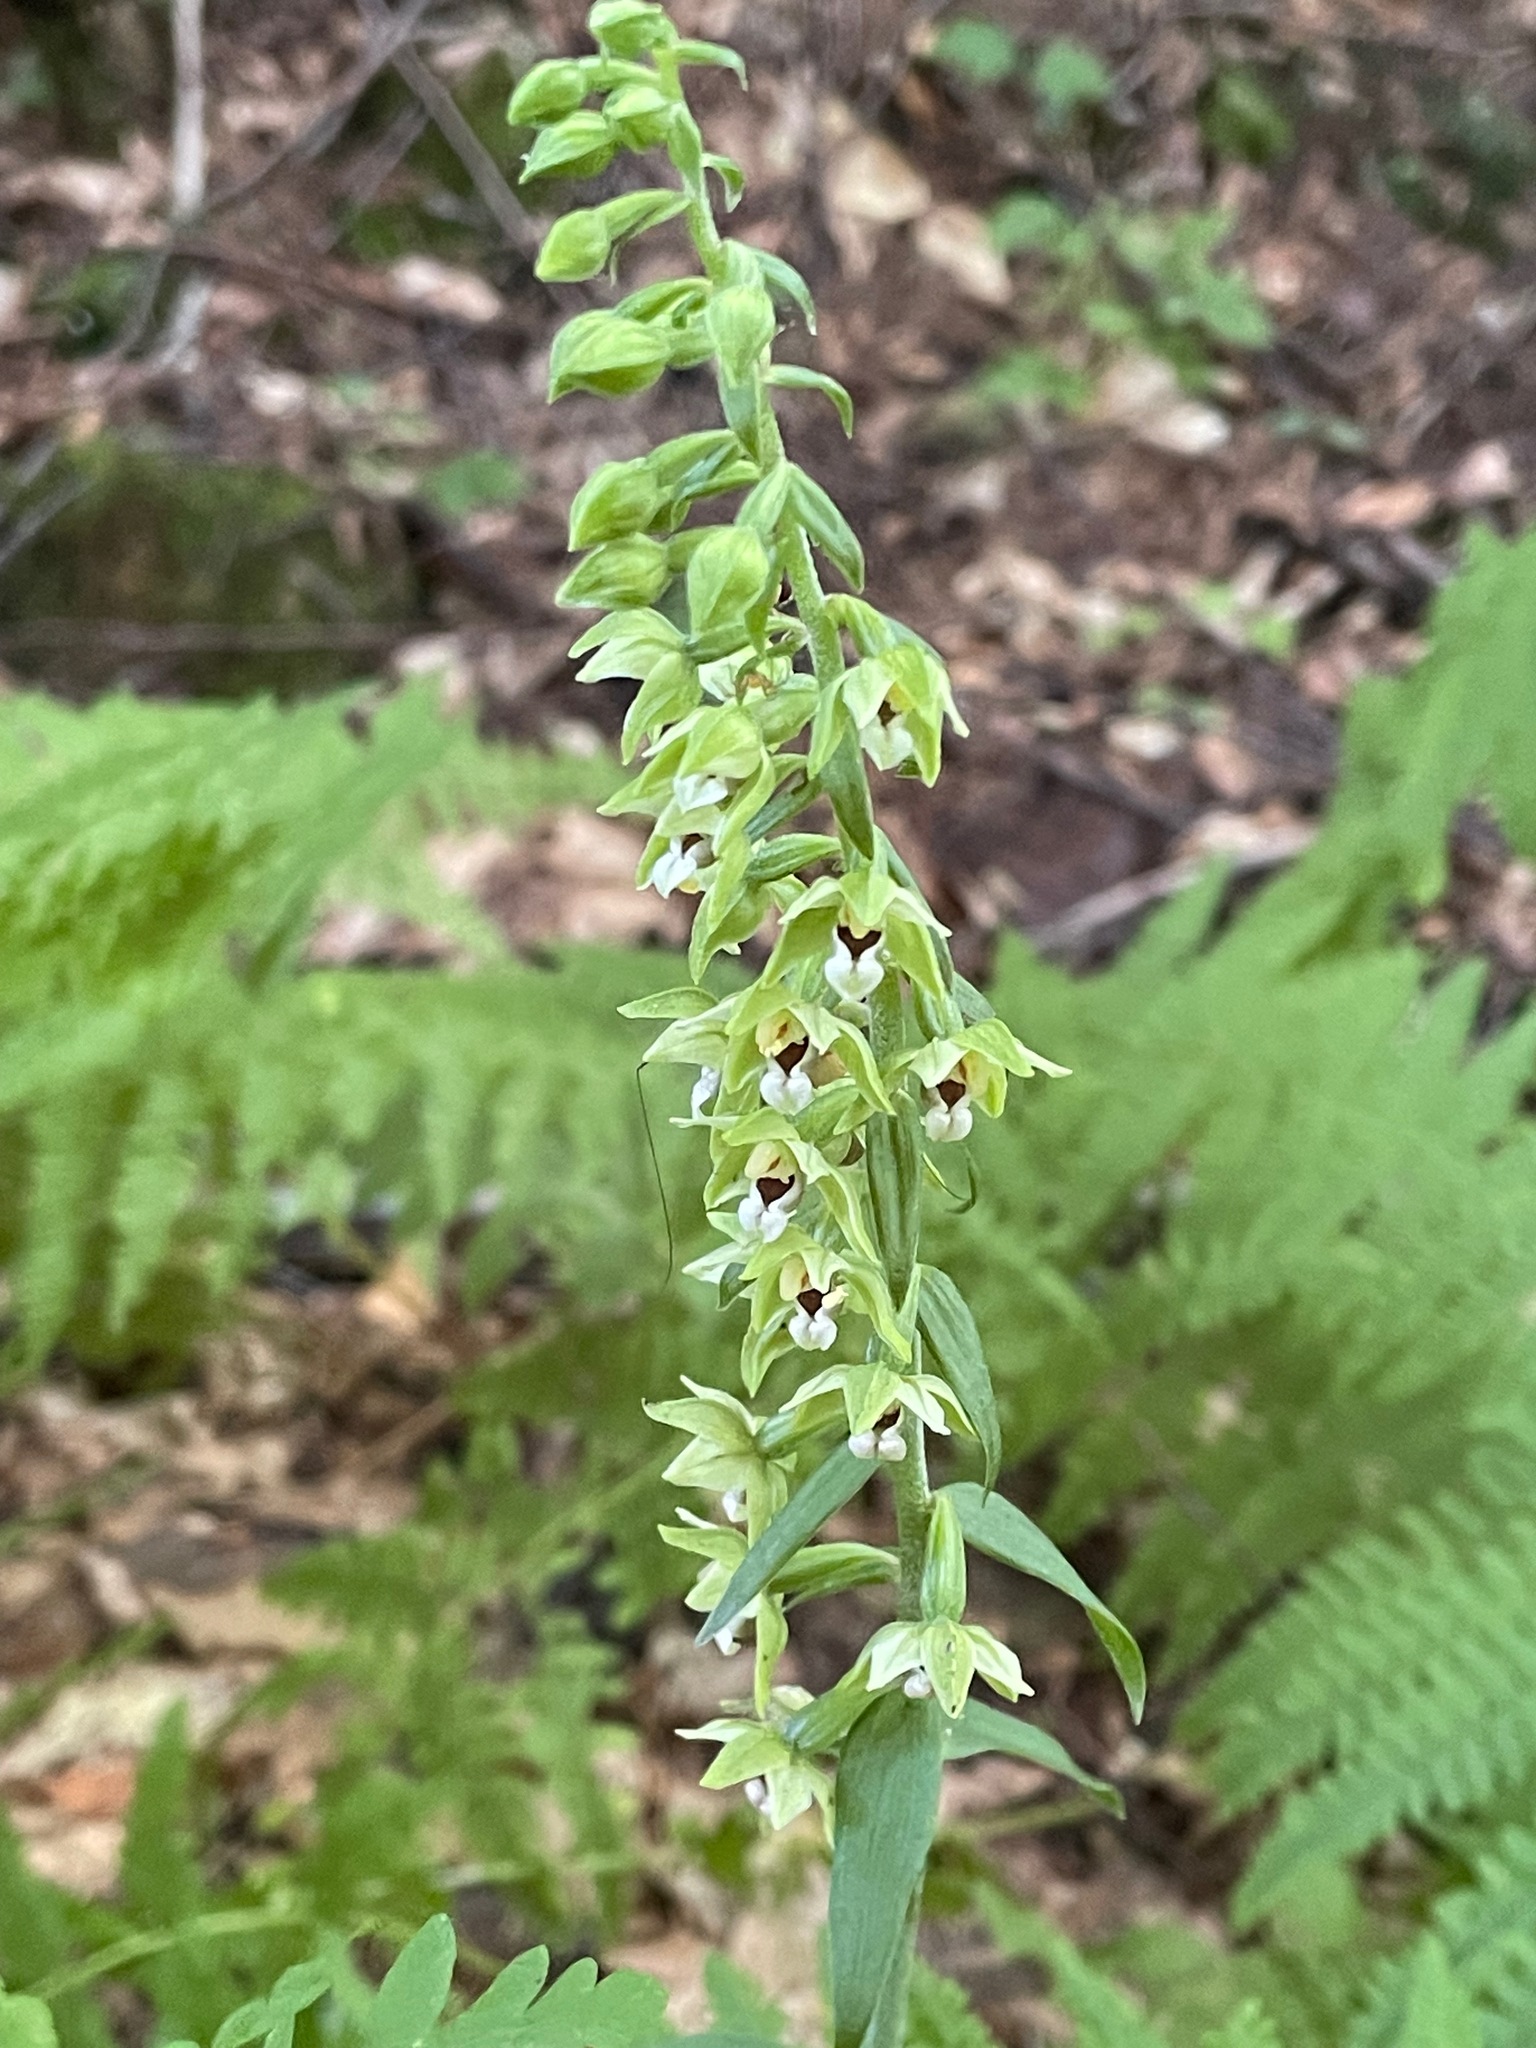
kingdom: Plantae
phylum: Tracheophyta
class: Liliopsida
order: Asparagales
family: Orchidaceae
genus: Epipactis
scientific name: Epipactis helleborine
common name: Broad-leaved helleborine
